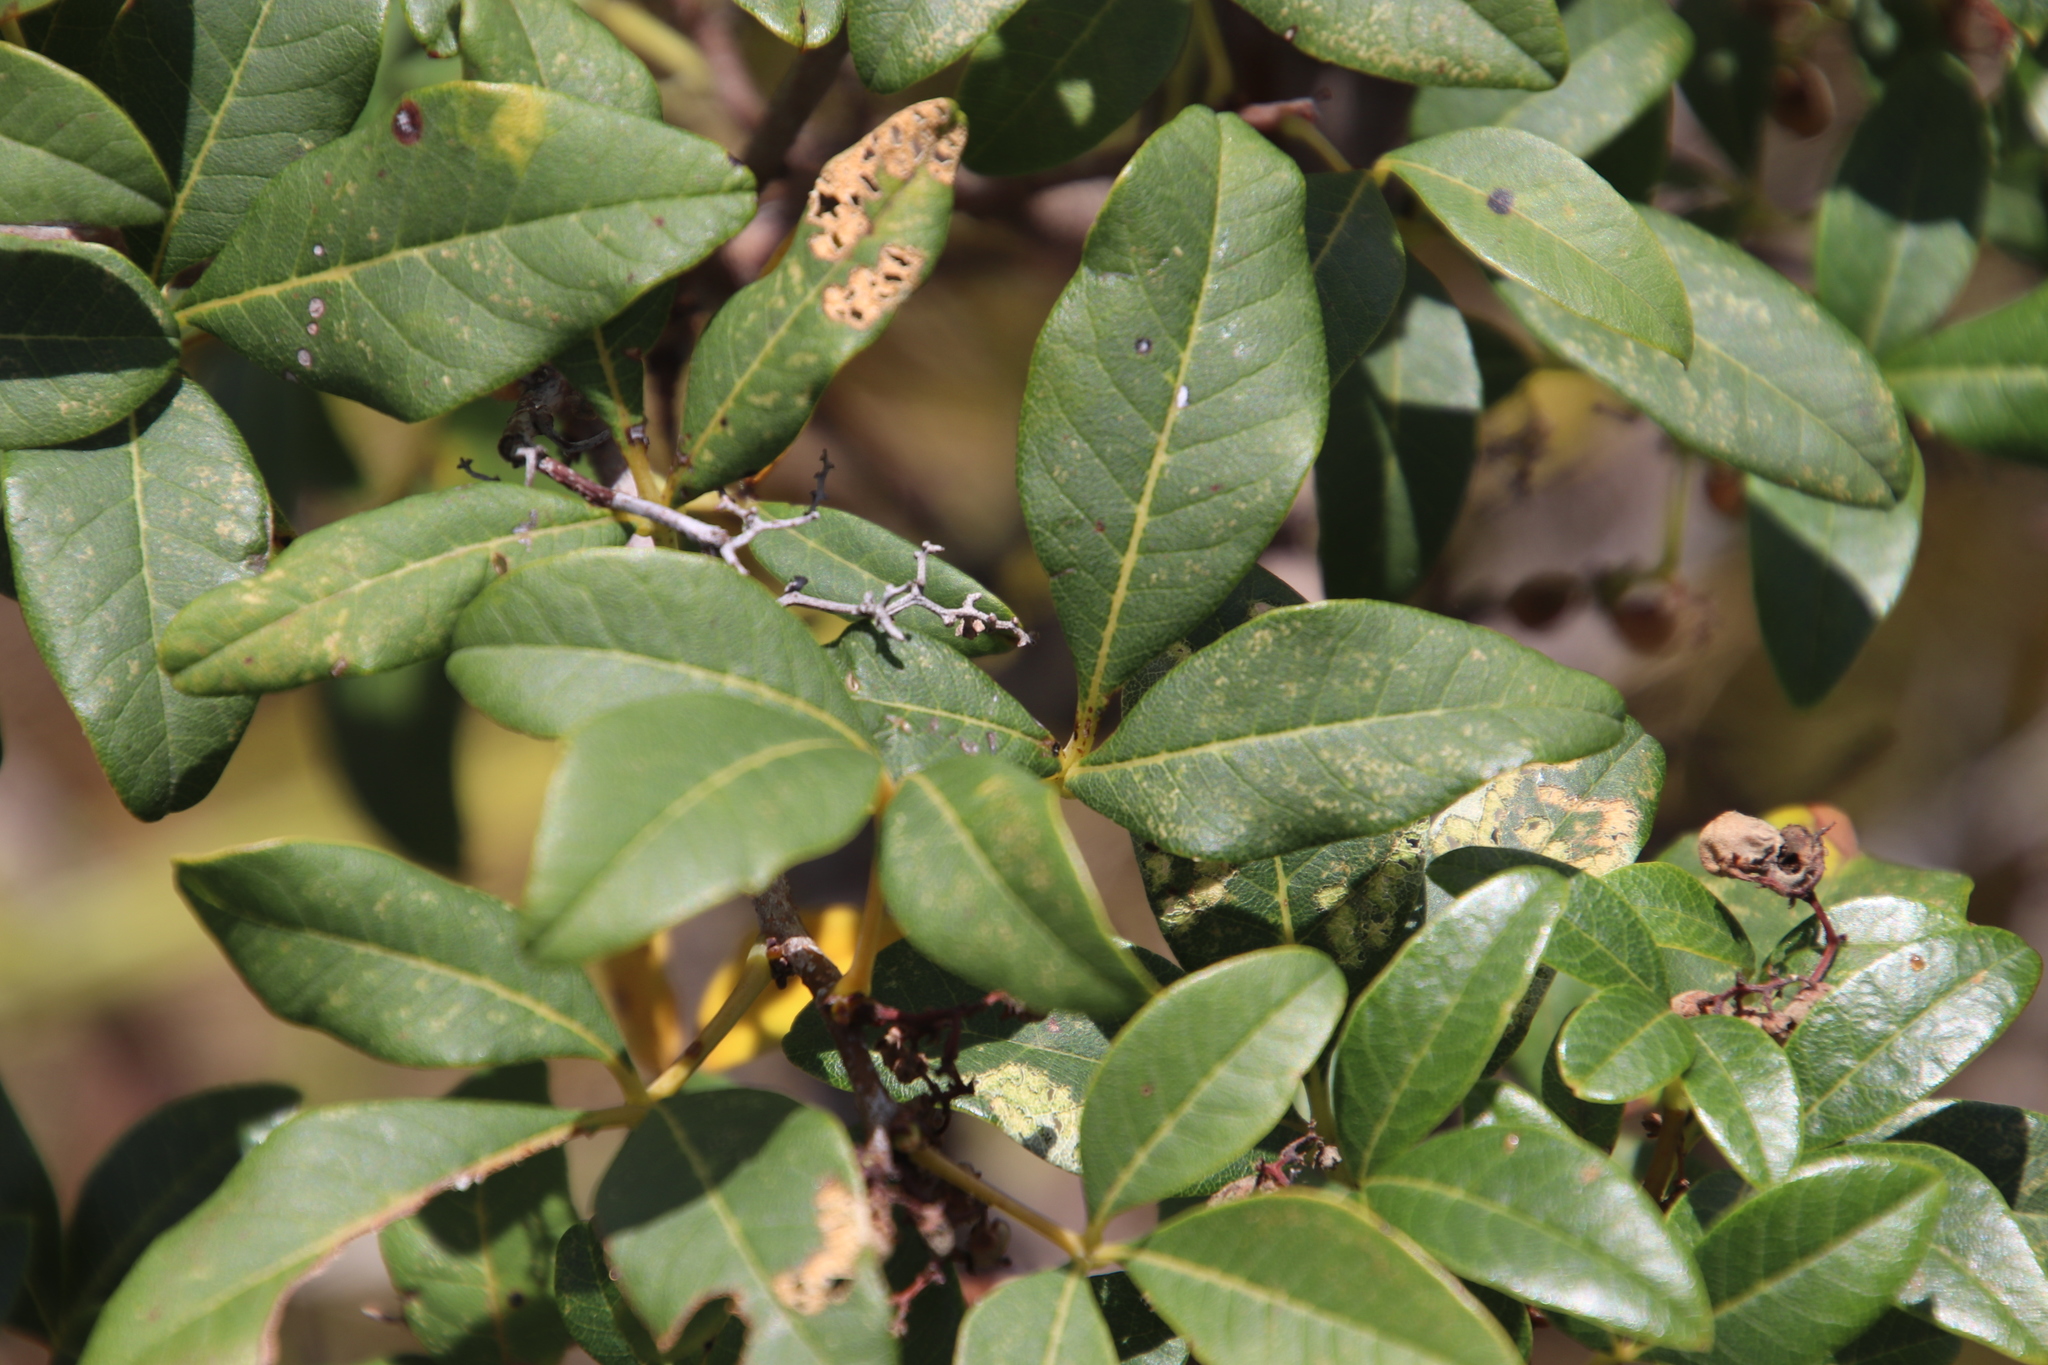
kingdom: Plantae
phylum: Tracheophyta
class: Magnoliopsida
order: Sapindales
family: Anacardiaceae
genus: Searsia
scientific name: Searsia tomentosa
